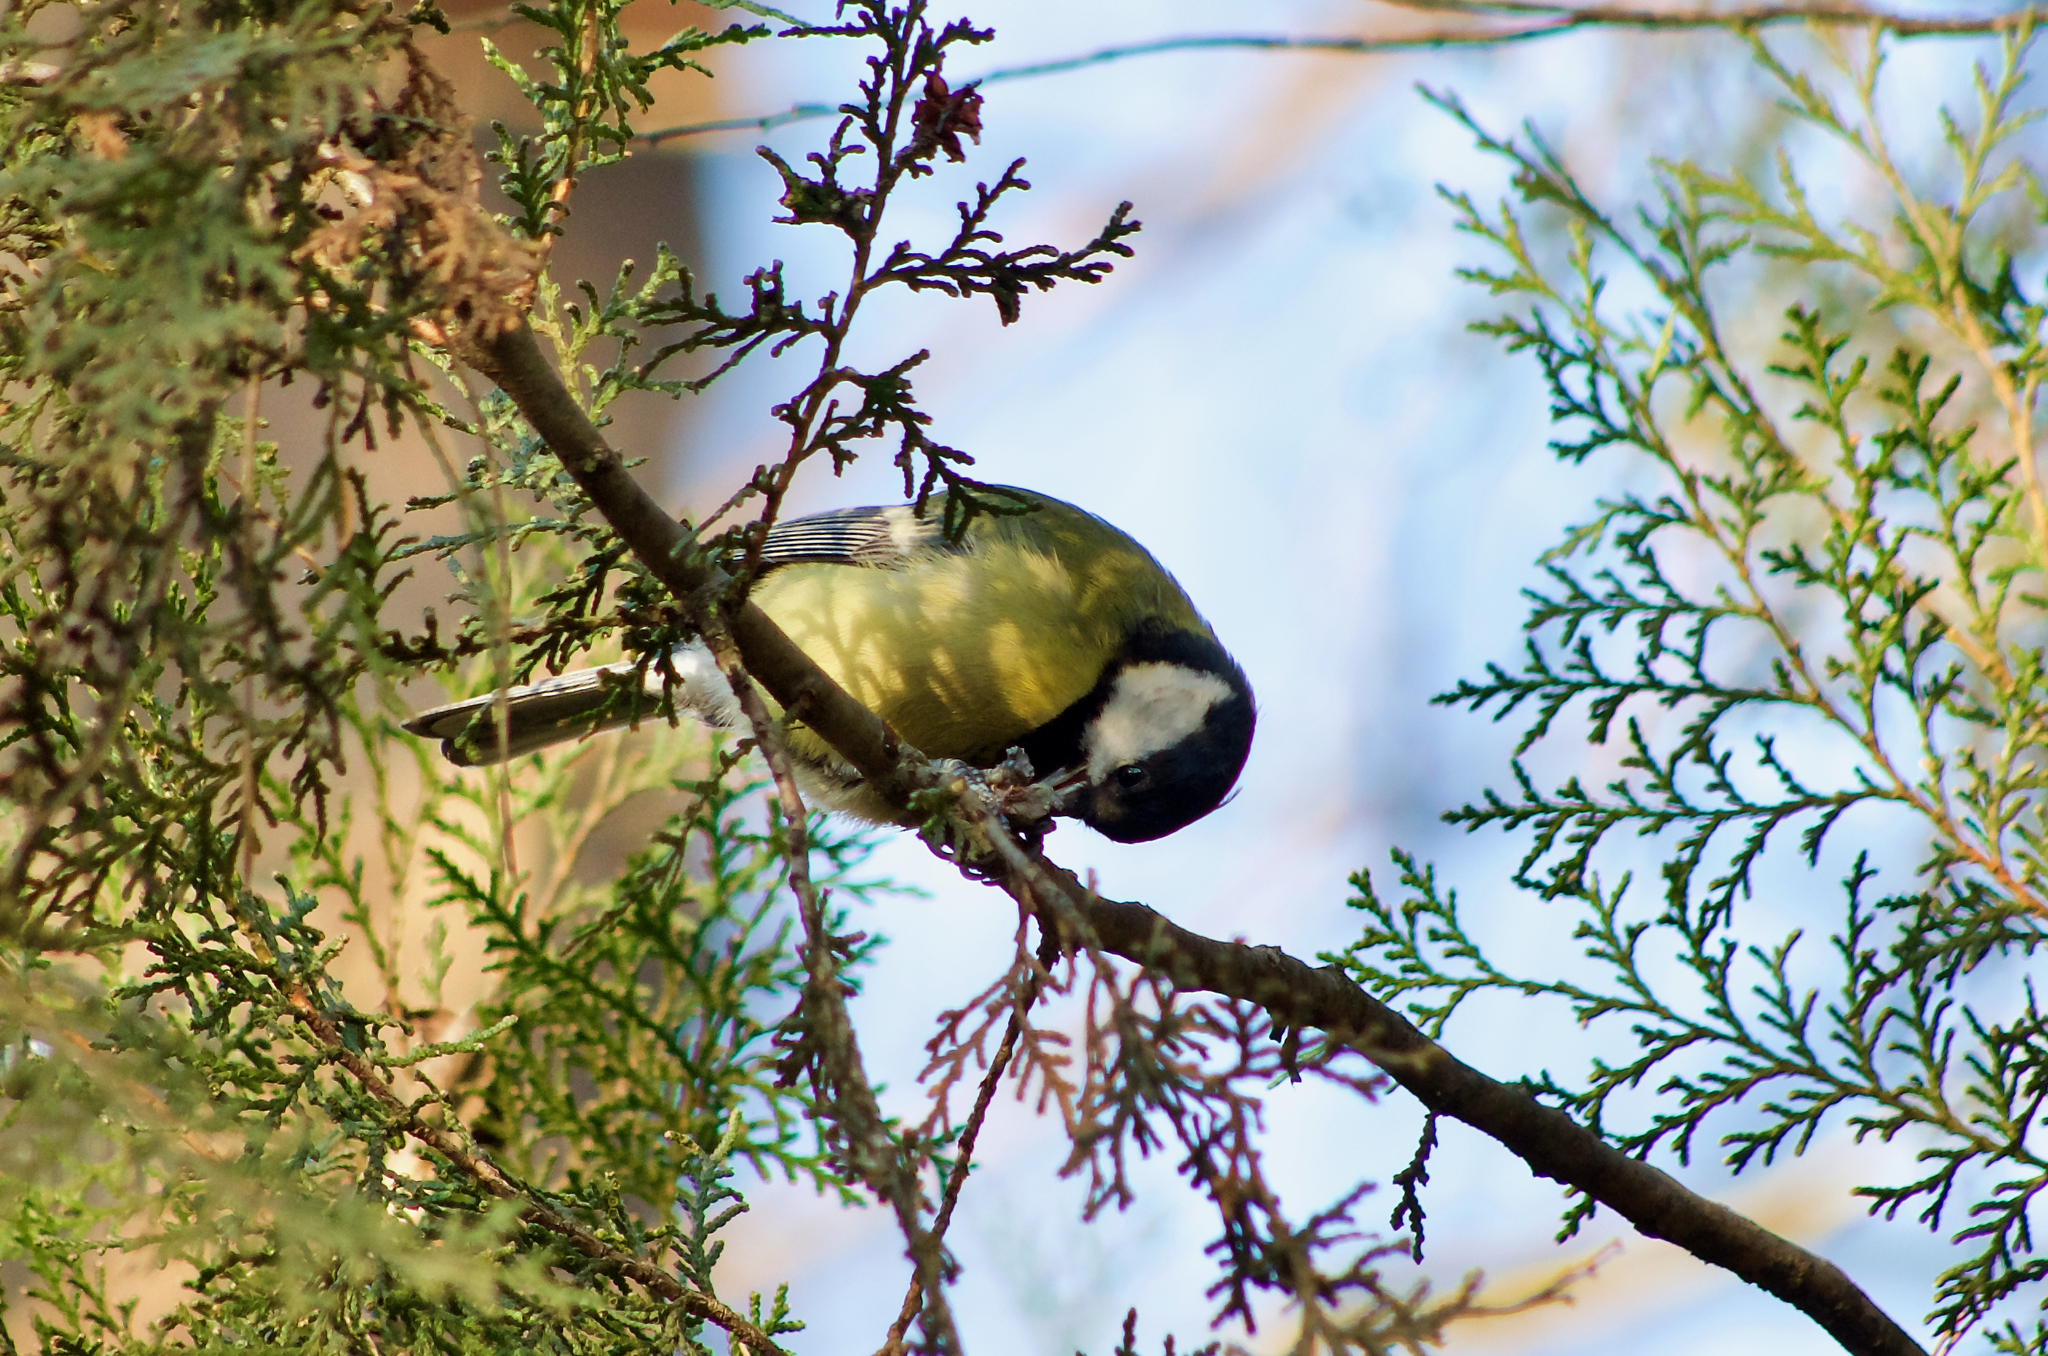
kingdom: Animalia
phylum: Chordata
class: Aves
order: Passeriformes
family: Paridae
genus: Parus
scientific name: Parus major
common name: Great tit
